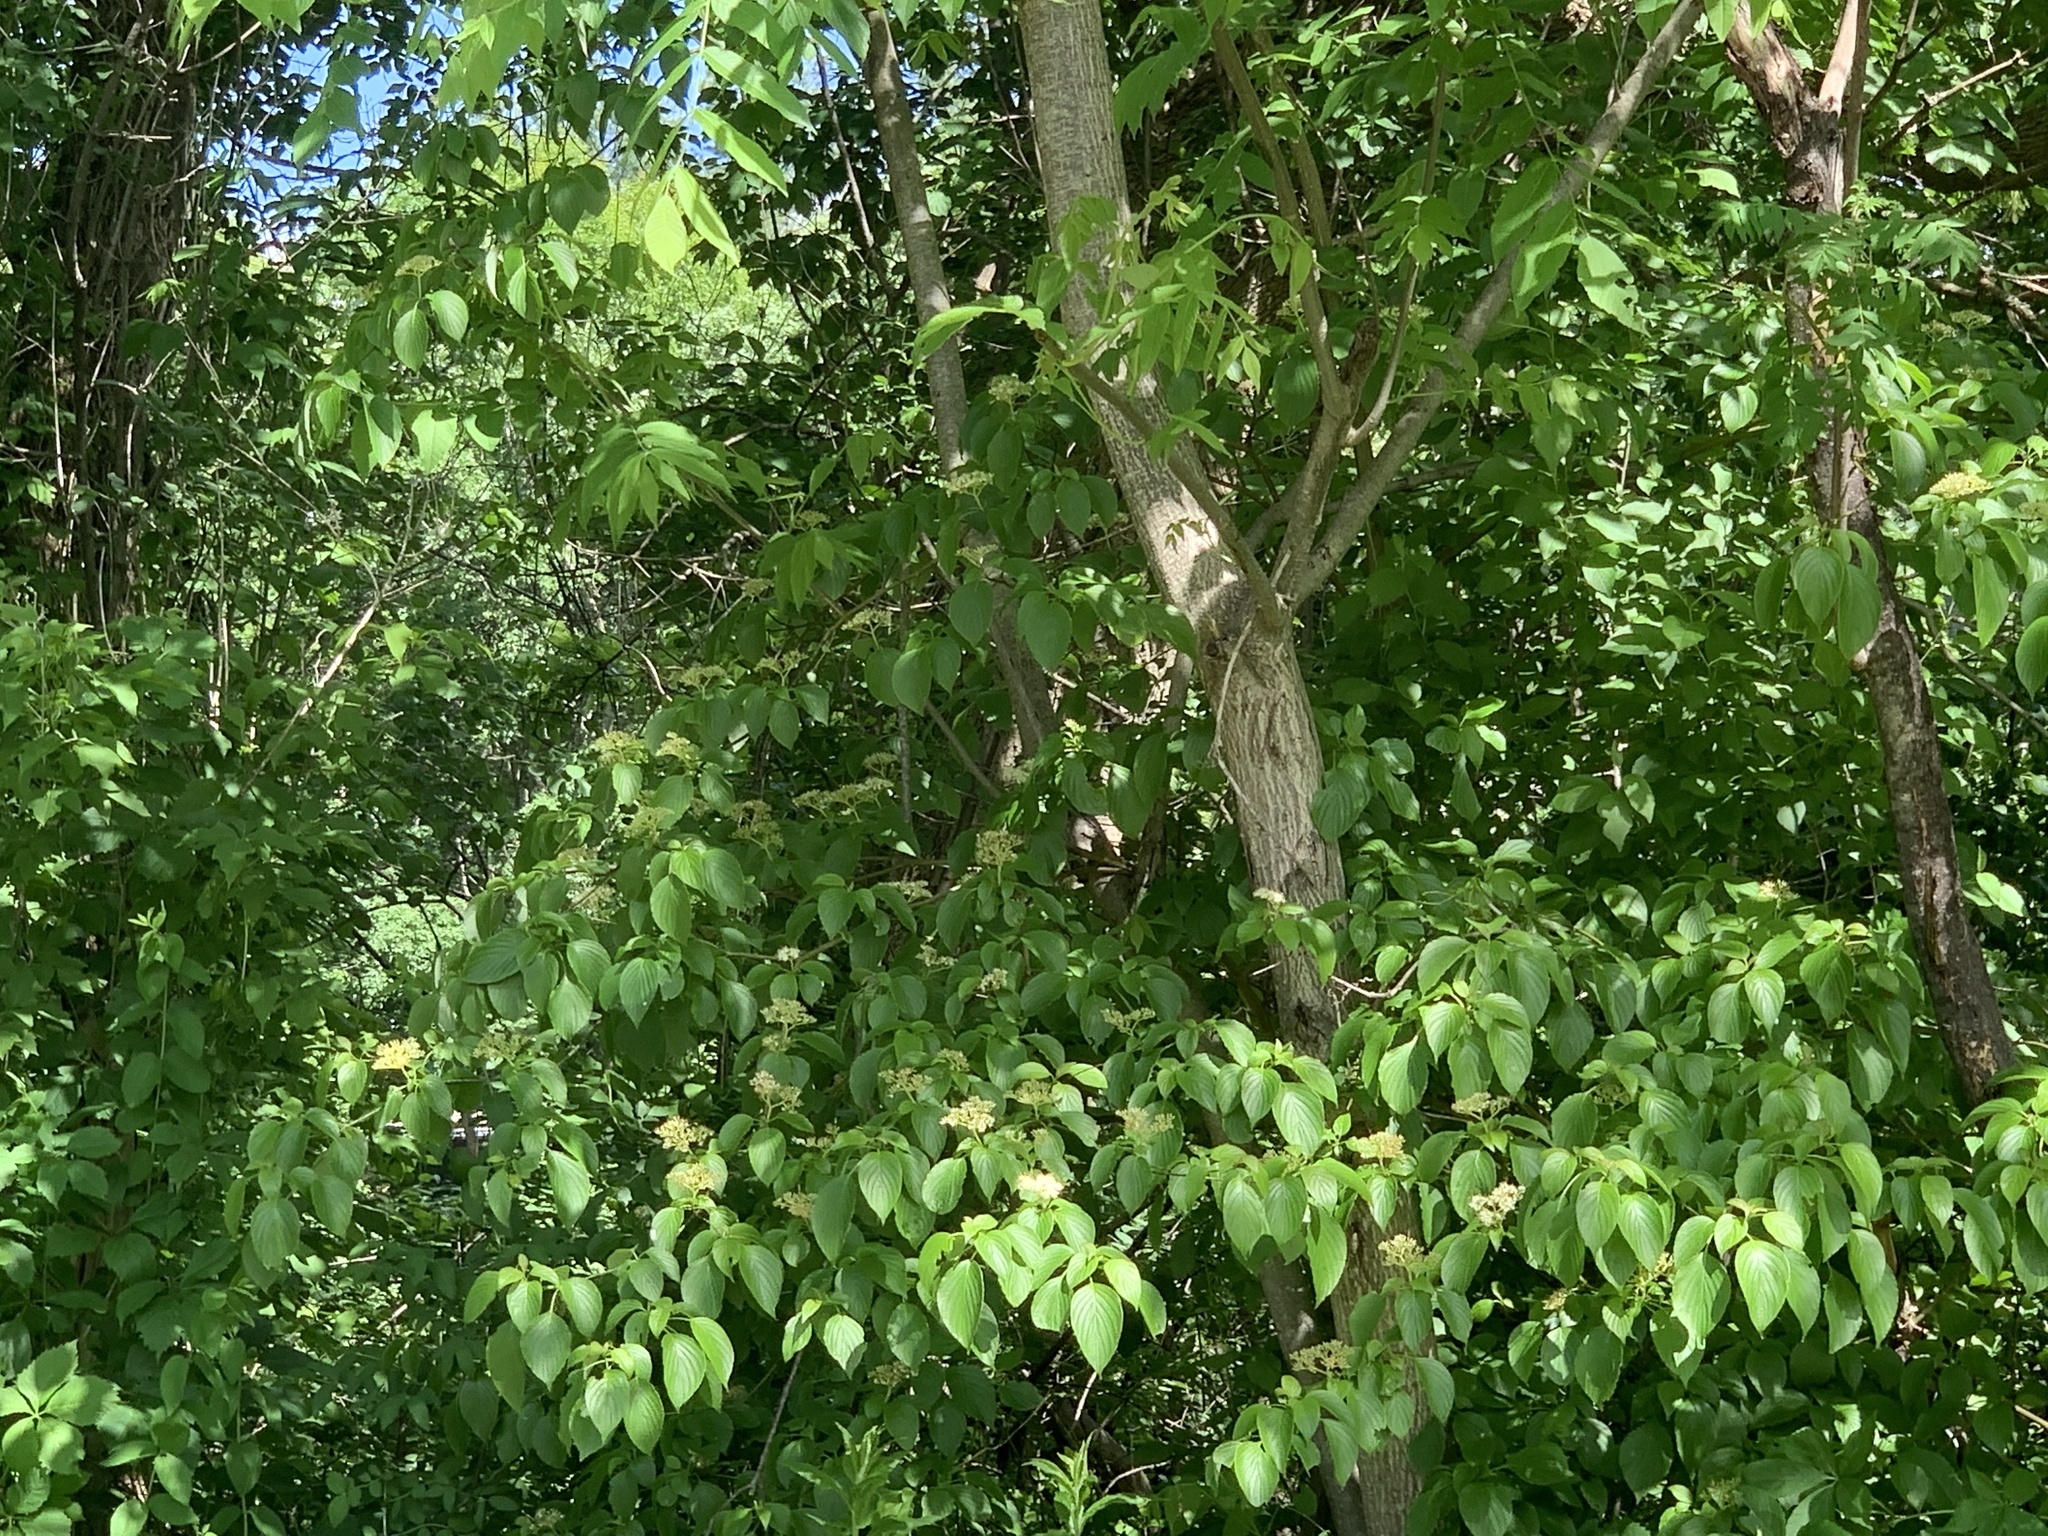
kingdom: Plantae
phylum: Tracheophyta
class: Magnoliopsida
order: Cornales
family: Cornaceae
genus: Cornus
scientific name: Cornus alternifolia
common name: Pagoda dogwood
